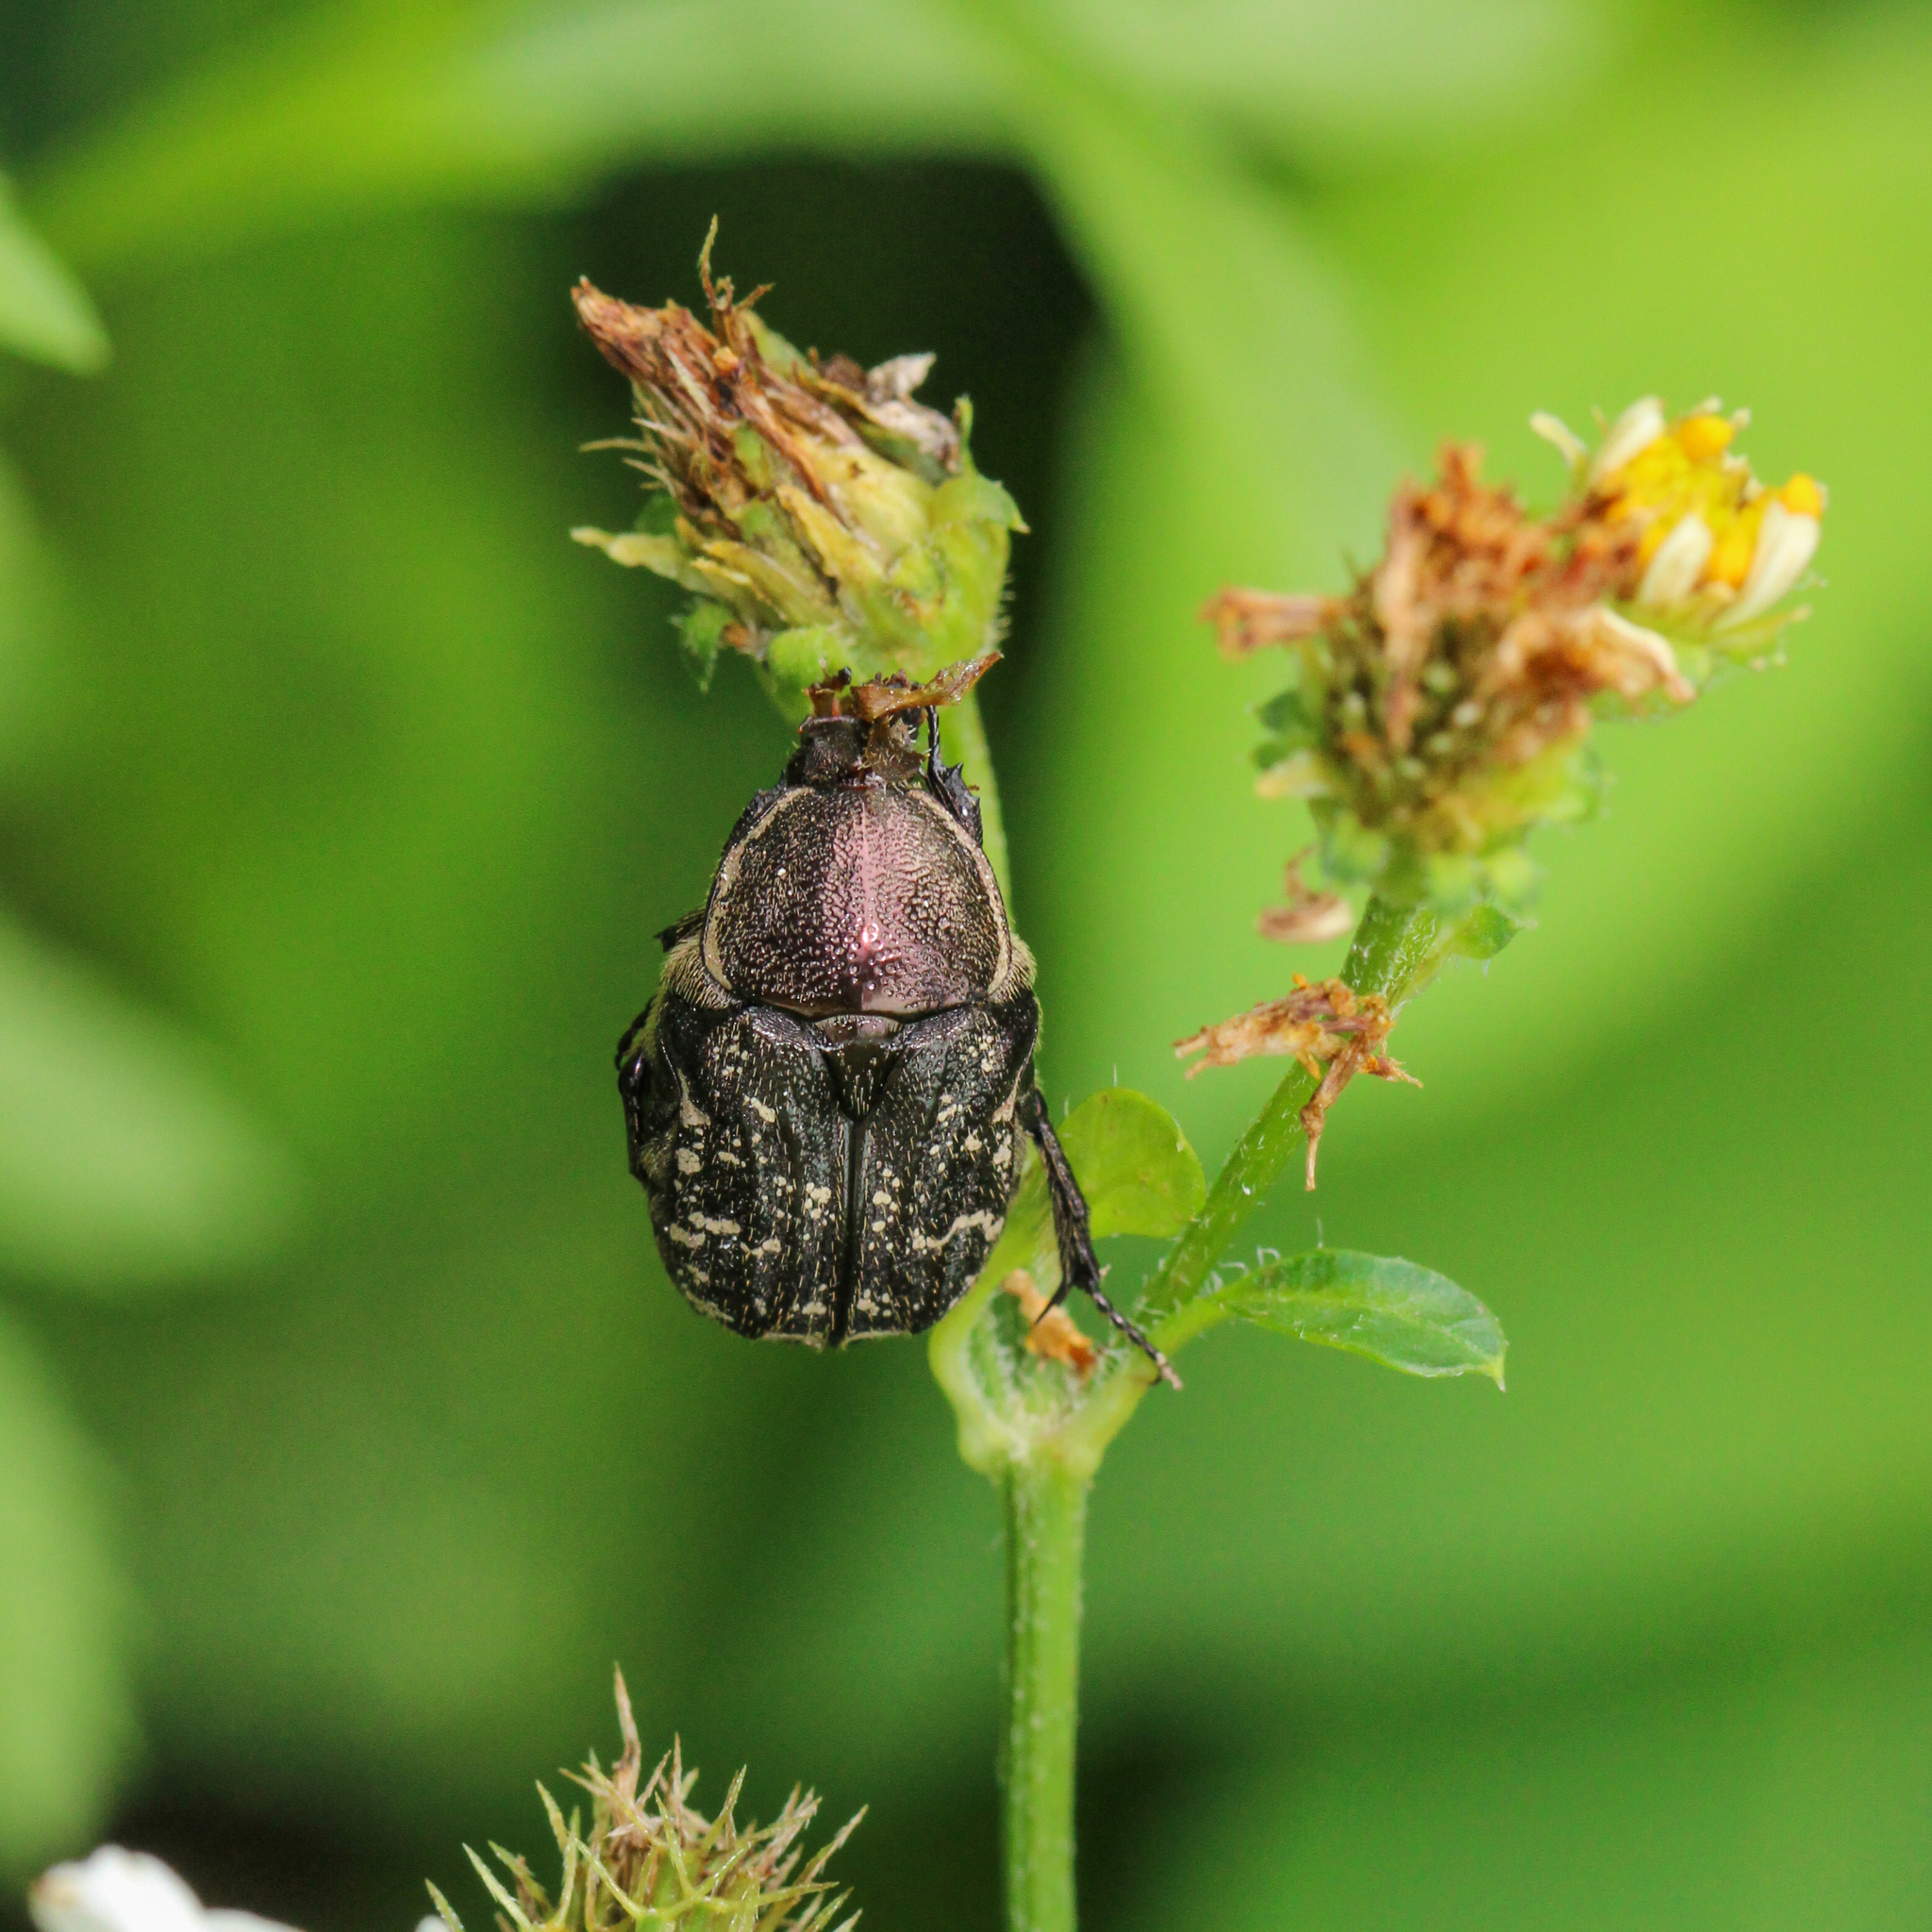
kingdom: Animalia
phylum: Arthropoda
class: Insecta
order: Coleoptera
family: Scarabaeidae
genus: Euphoria
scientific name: Euphoria sepulcralis
